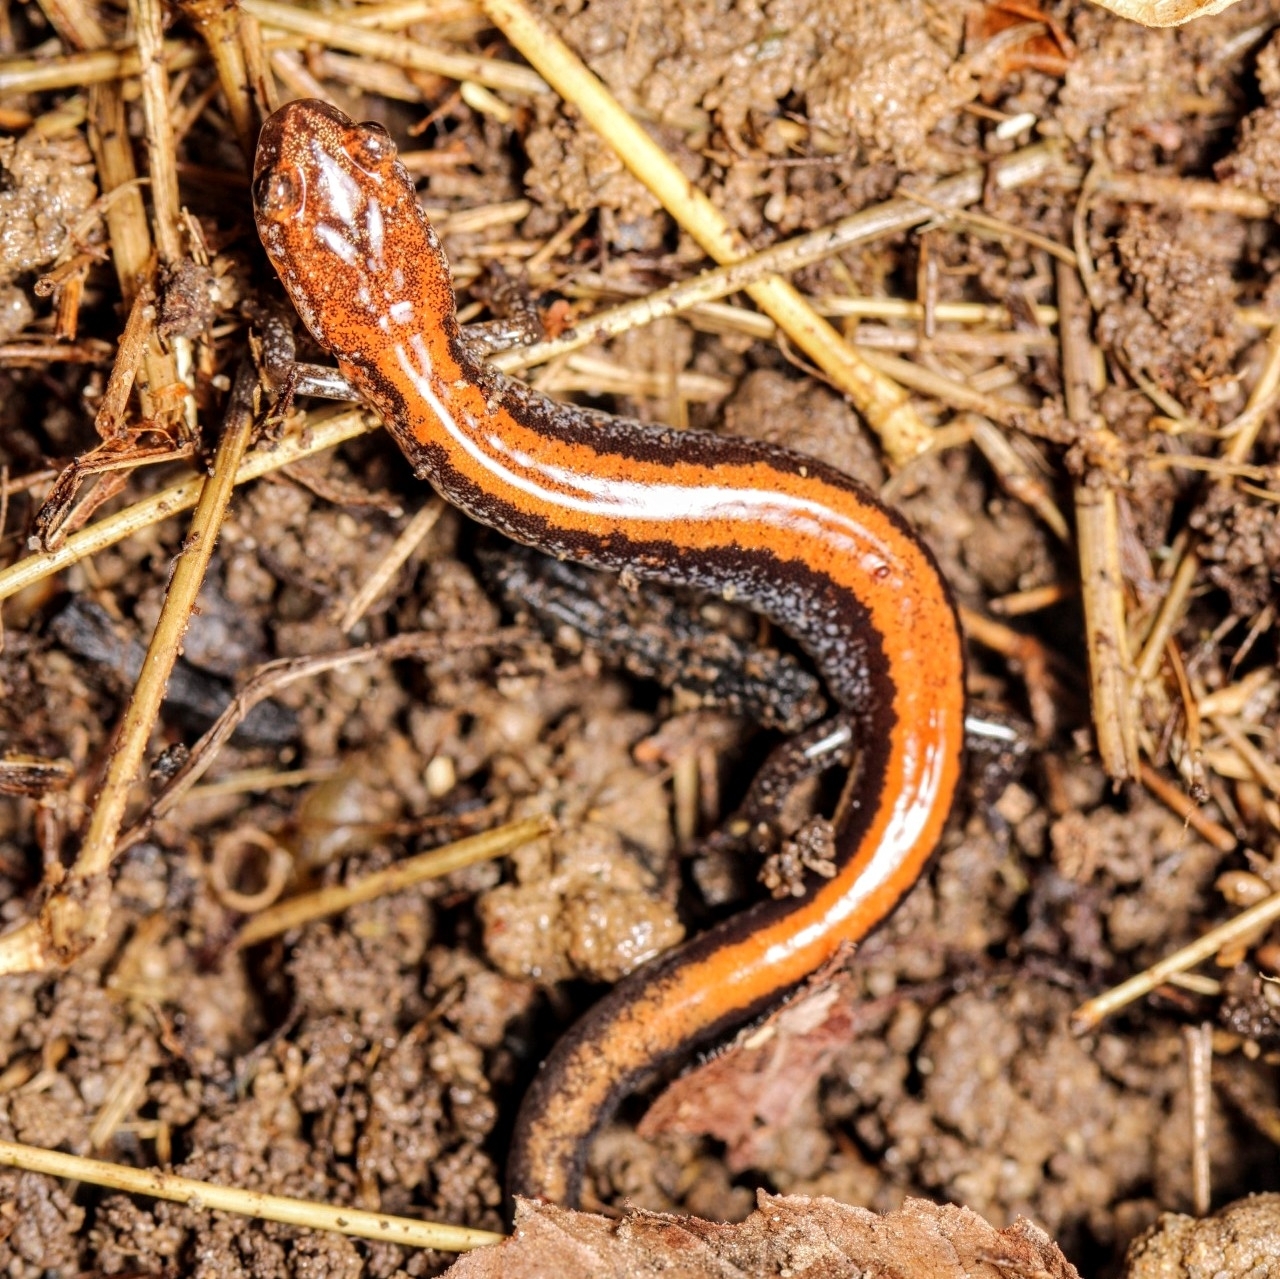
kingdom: Animalia
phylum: Chordata
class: Amphibia
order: Caudata
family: Plethodontidae
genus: Plethodon
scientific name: Plethodon cinereus
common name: Redback salamander
